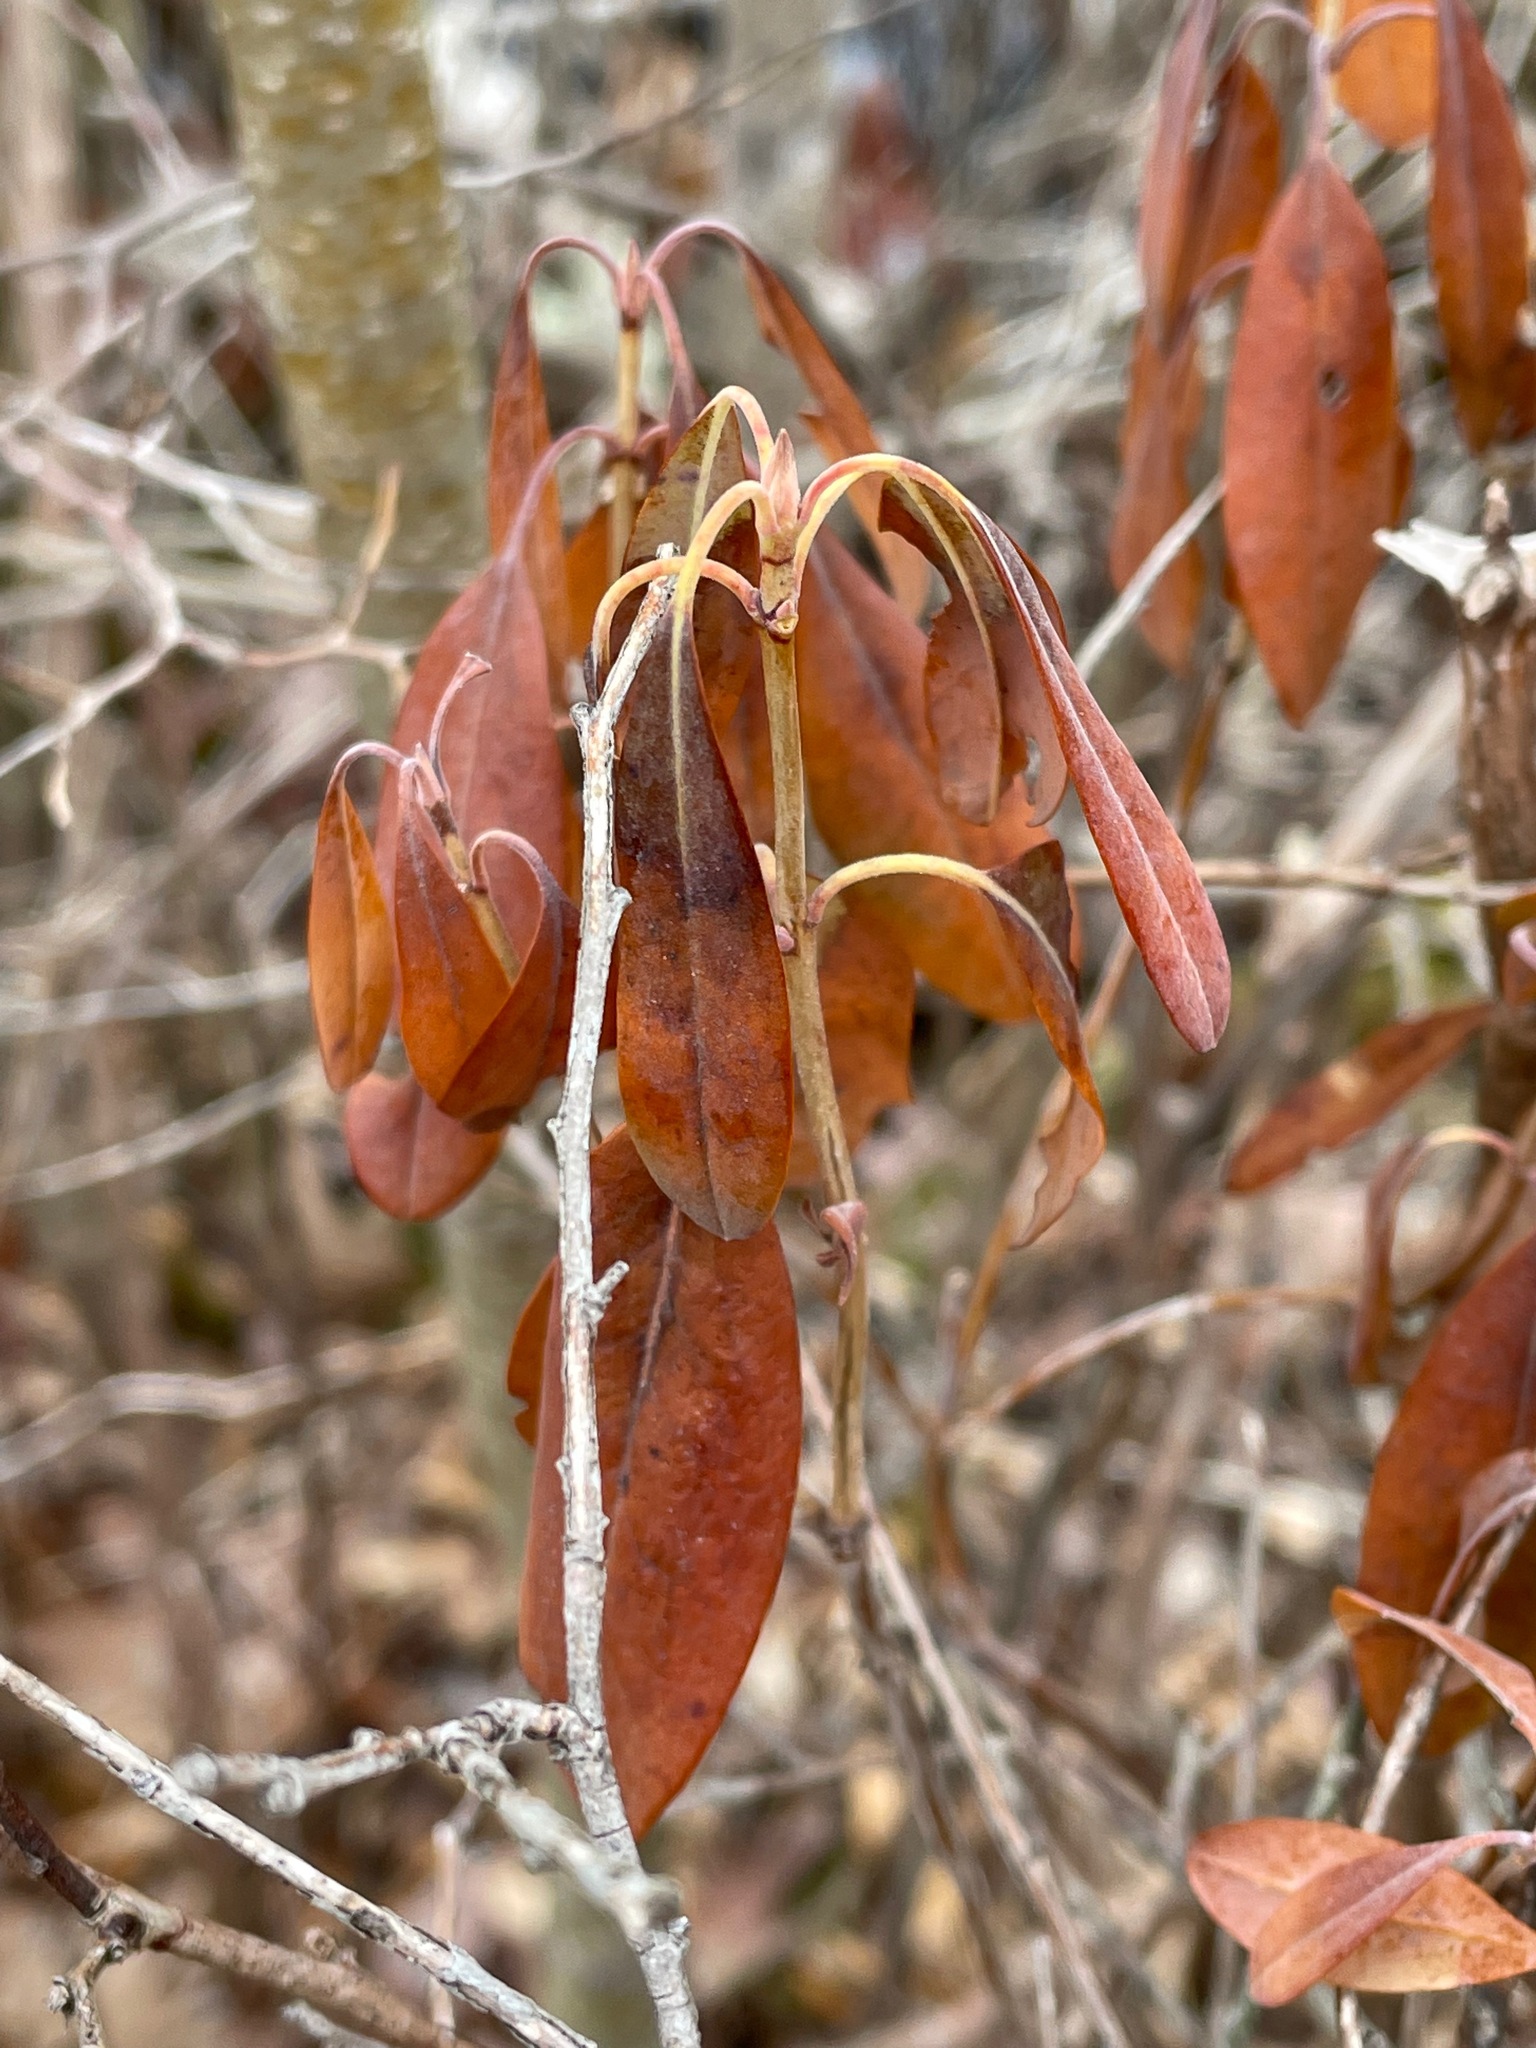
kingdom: Plantae
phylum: Tracheophyta
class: Magnoliopsida
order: Ericales
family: Ericaceae
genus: Kalmia
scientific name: Kalmia angustifolia
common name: Sheep-laurel
